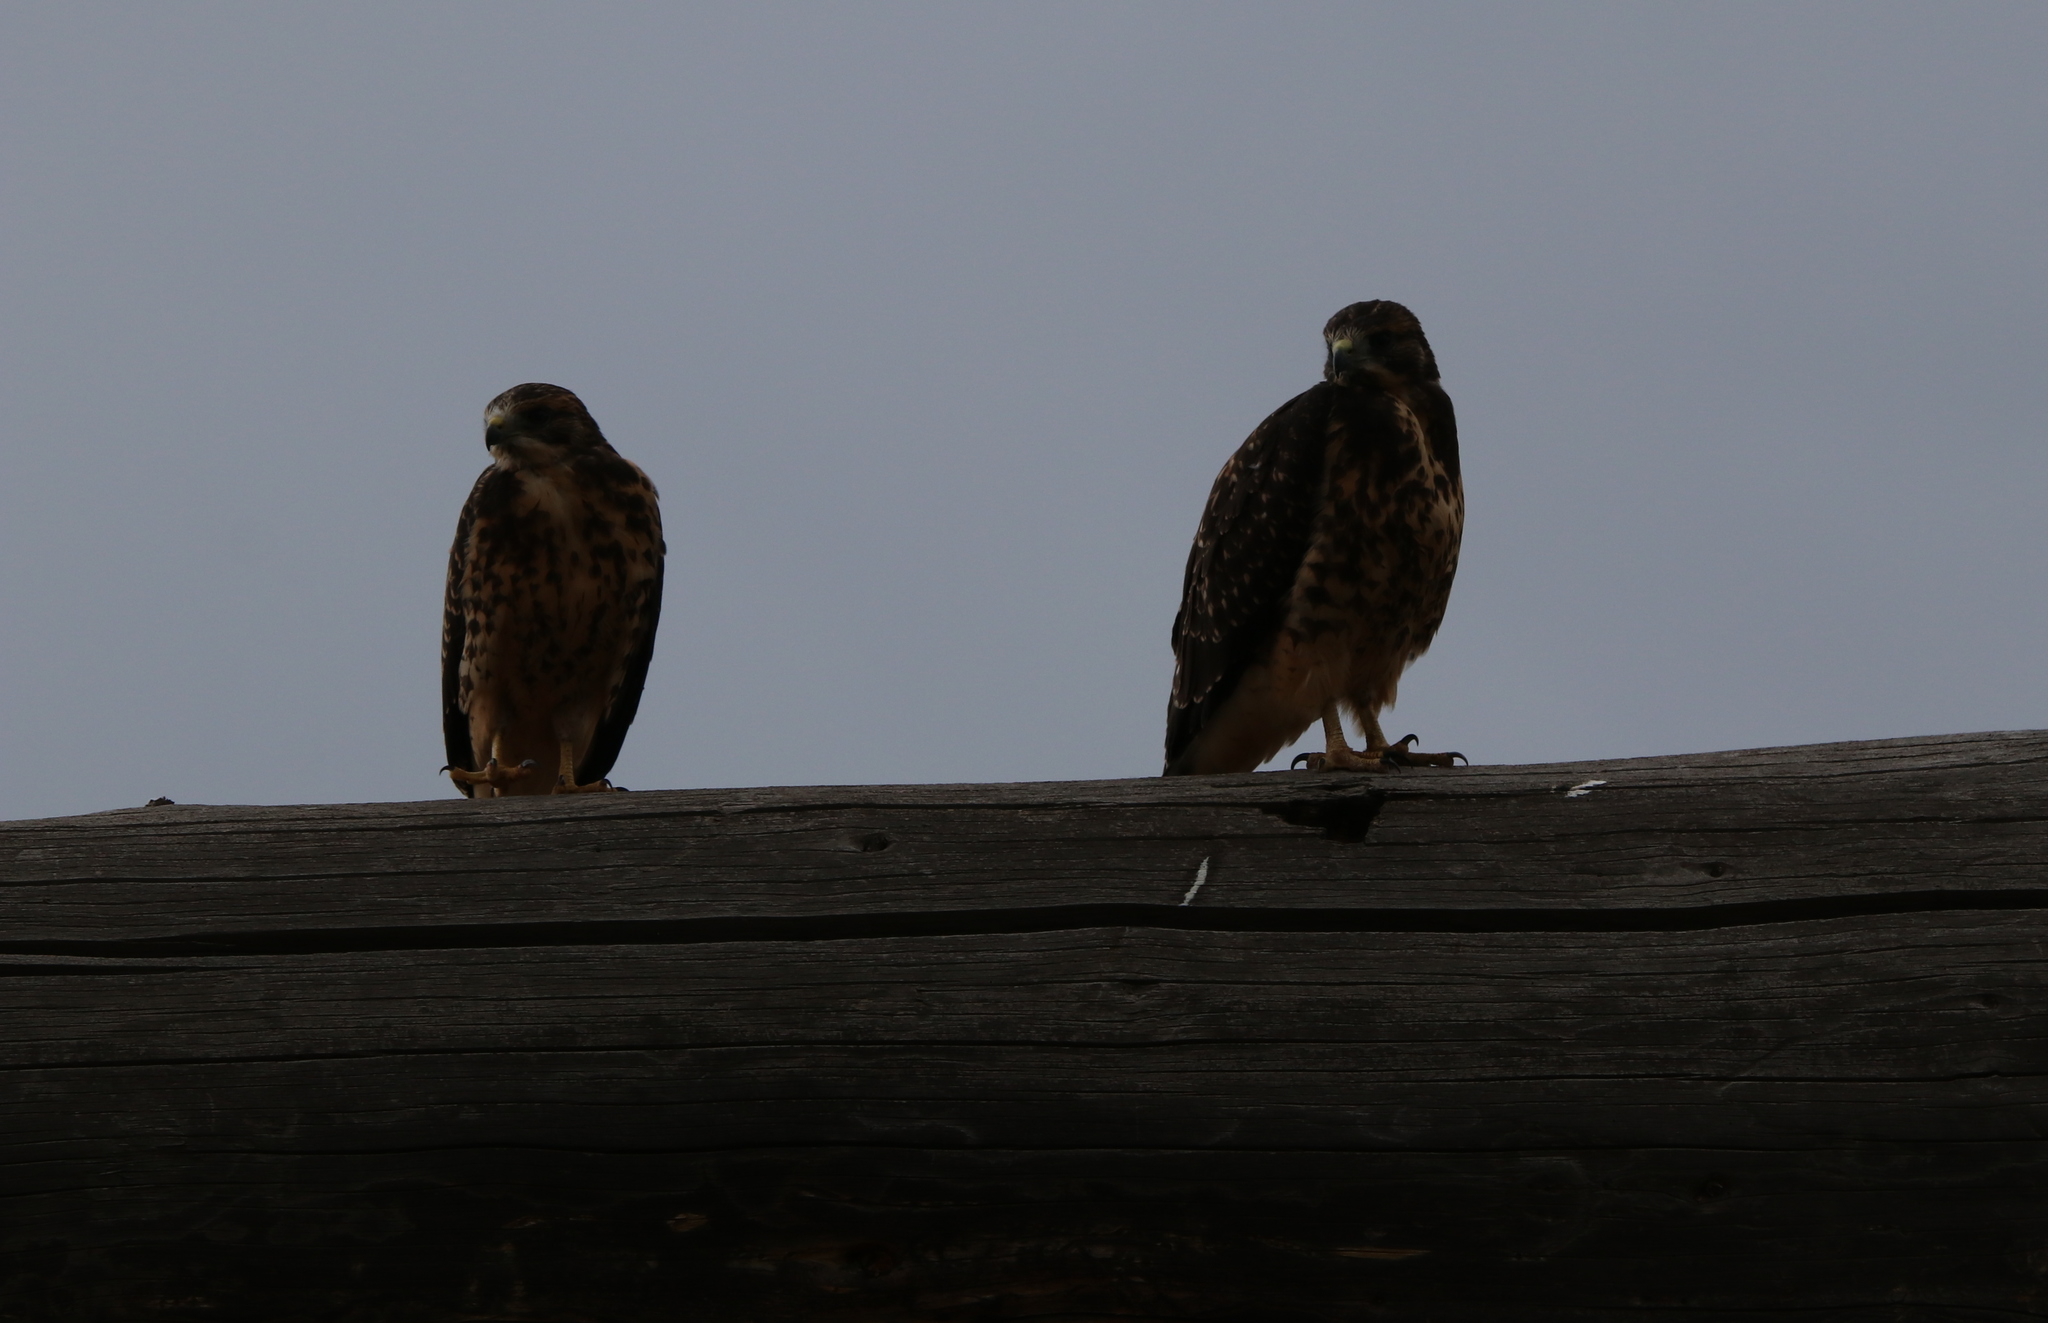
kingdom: Animalia
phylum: Chordata
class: Aves
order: Accipitriformes
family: Accipitridae
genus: Buteo
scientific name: Buteo swainsoni
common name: Swainson's hawk
